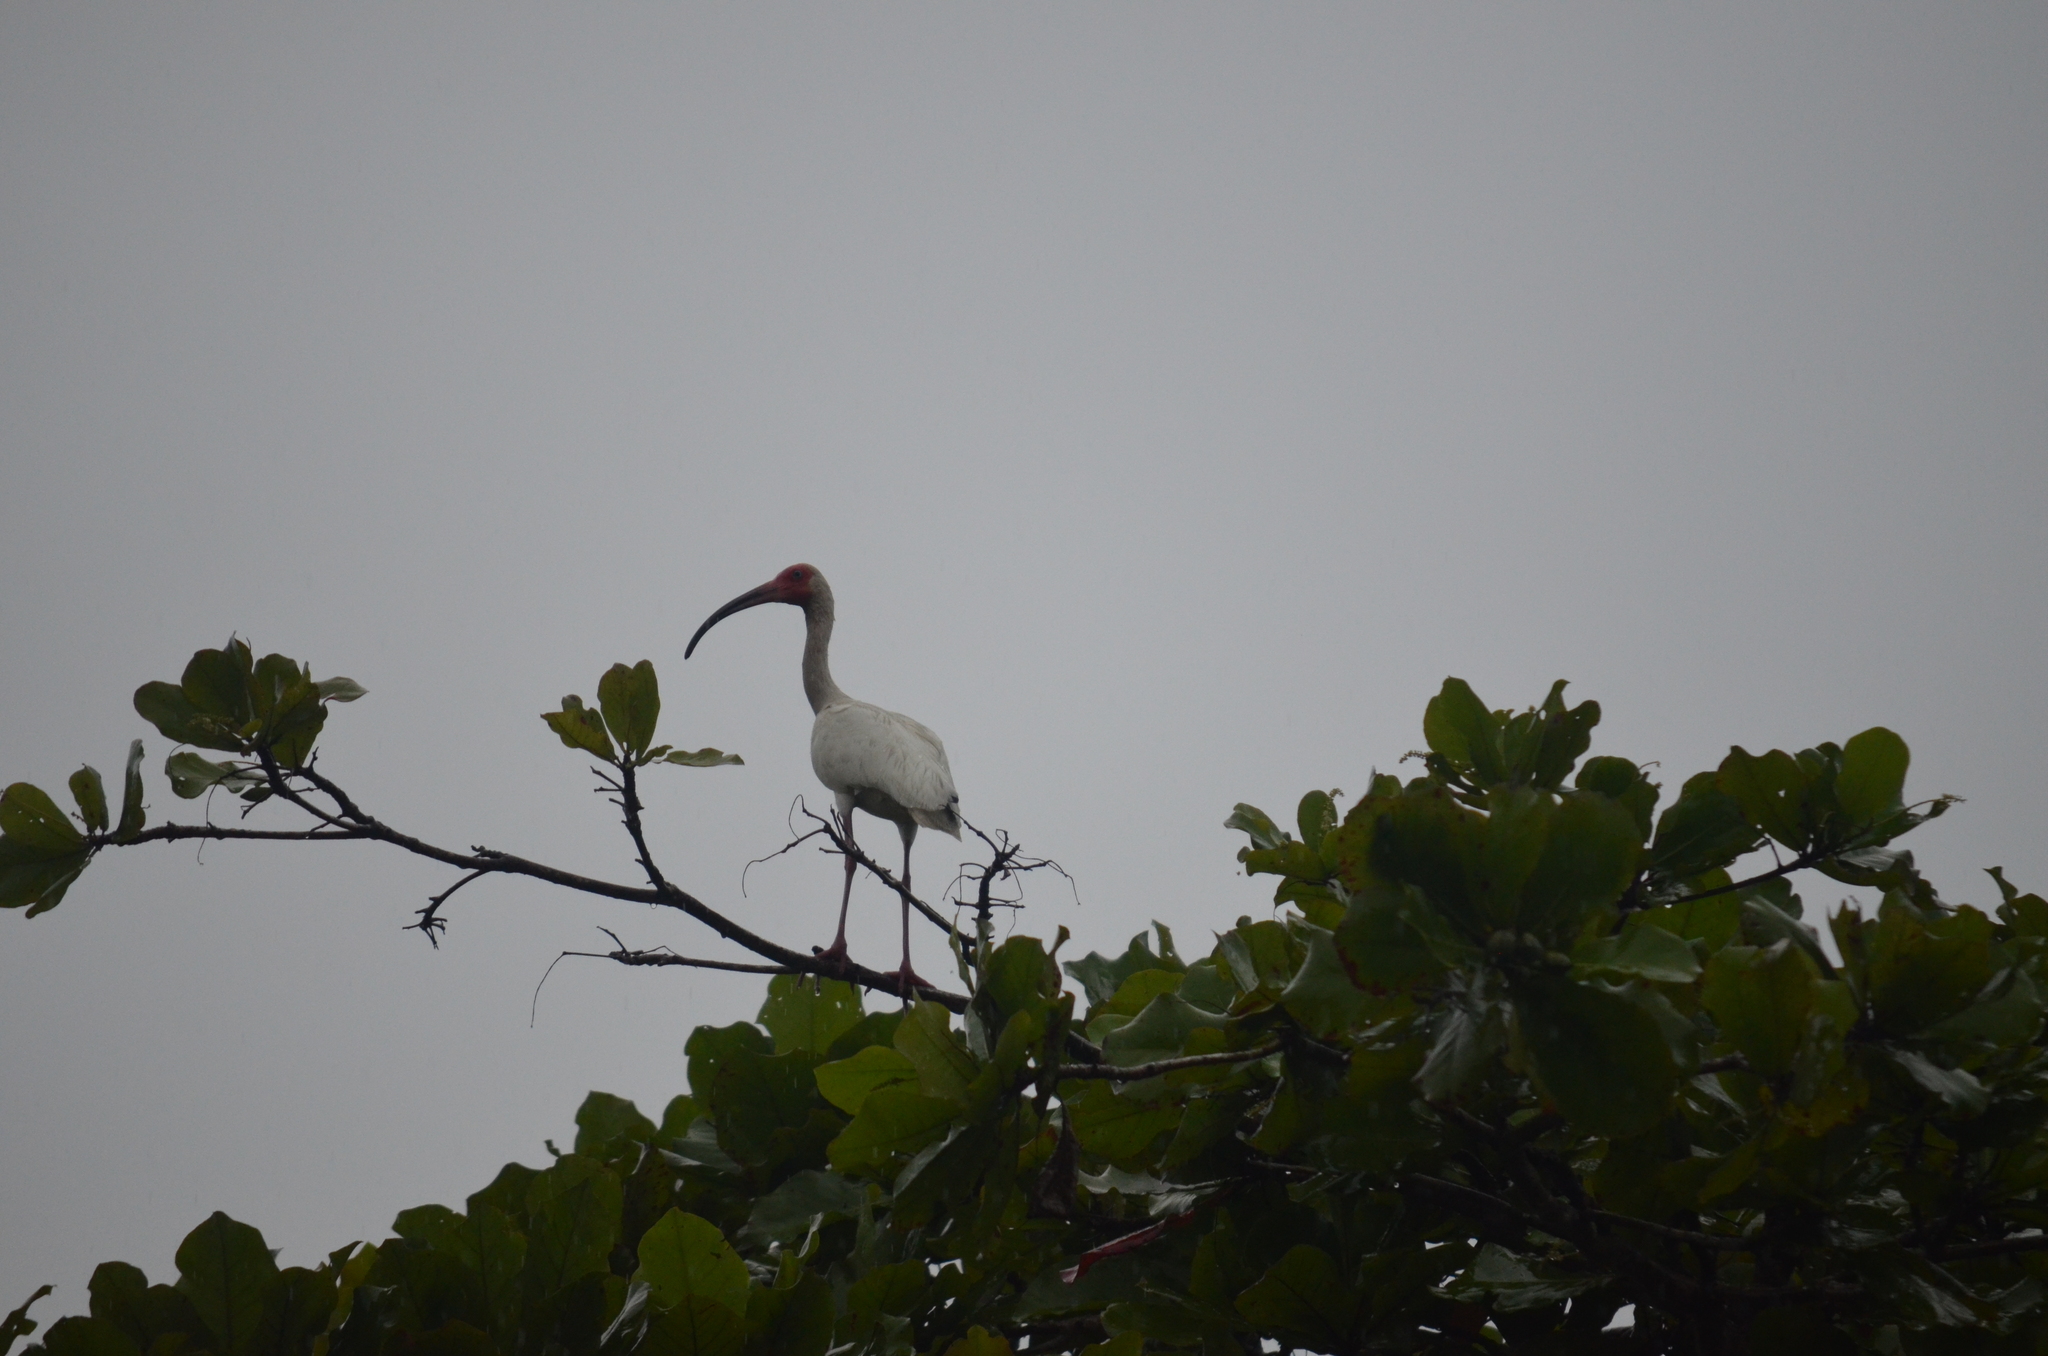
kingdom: Animalia
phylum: Chordata
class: Aves
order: Pelecaniformes
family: Threskiornithidae
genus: Eudocimus
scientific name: Eudocimus albus
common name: White ibis
